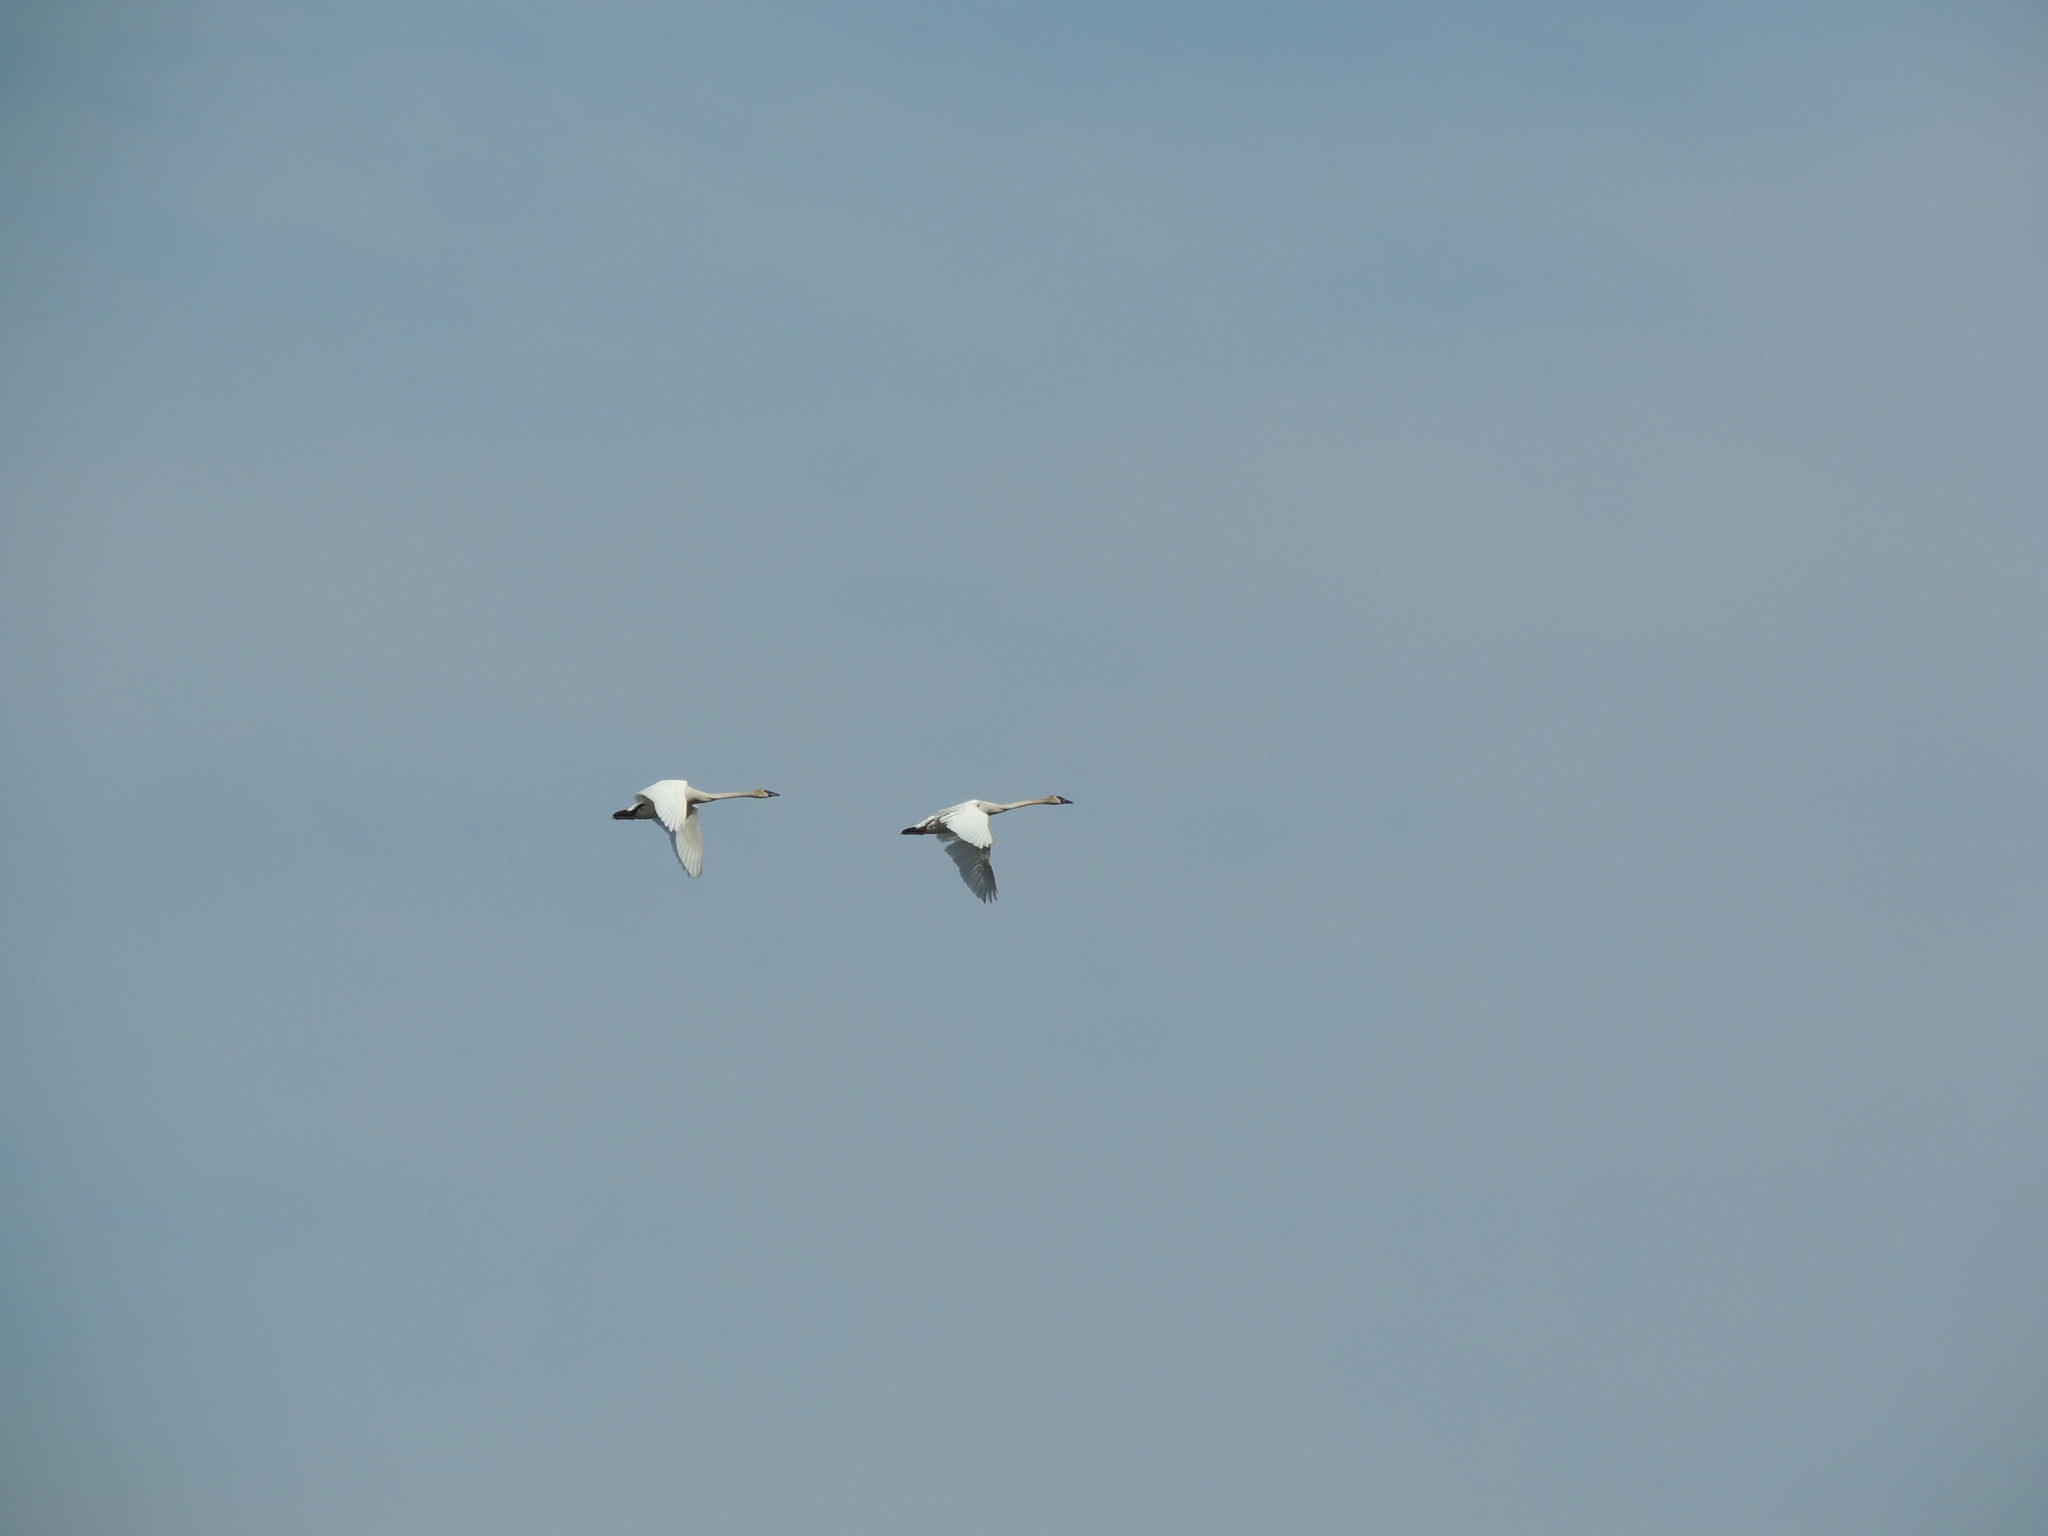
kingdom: Animalia
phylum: Chordata
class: Aves
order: Anseriformes
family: Anatidae
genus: Cygnus
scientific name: Cygnus buccinator
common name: Trumpeter swan
